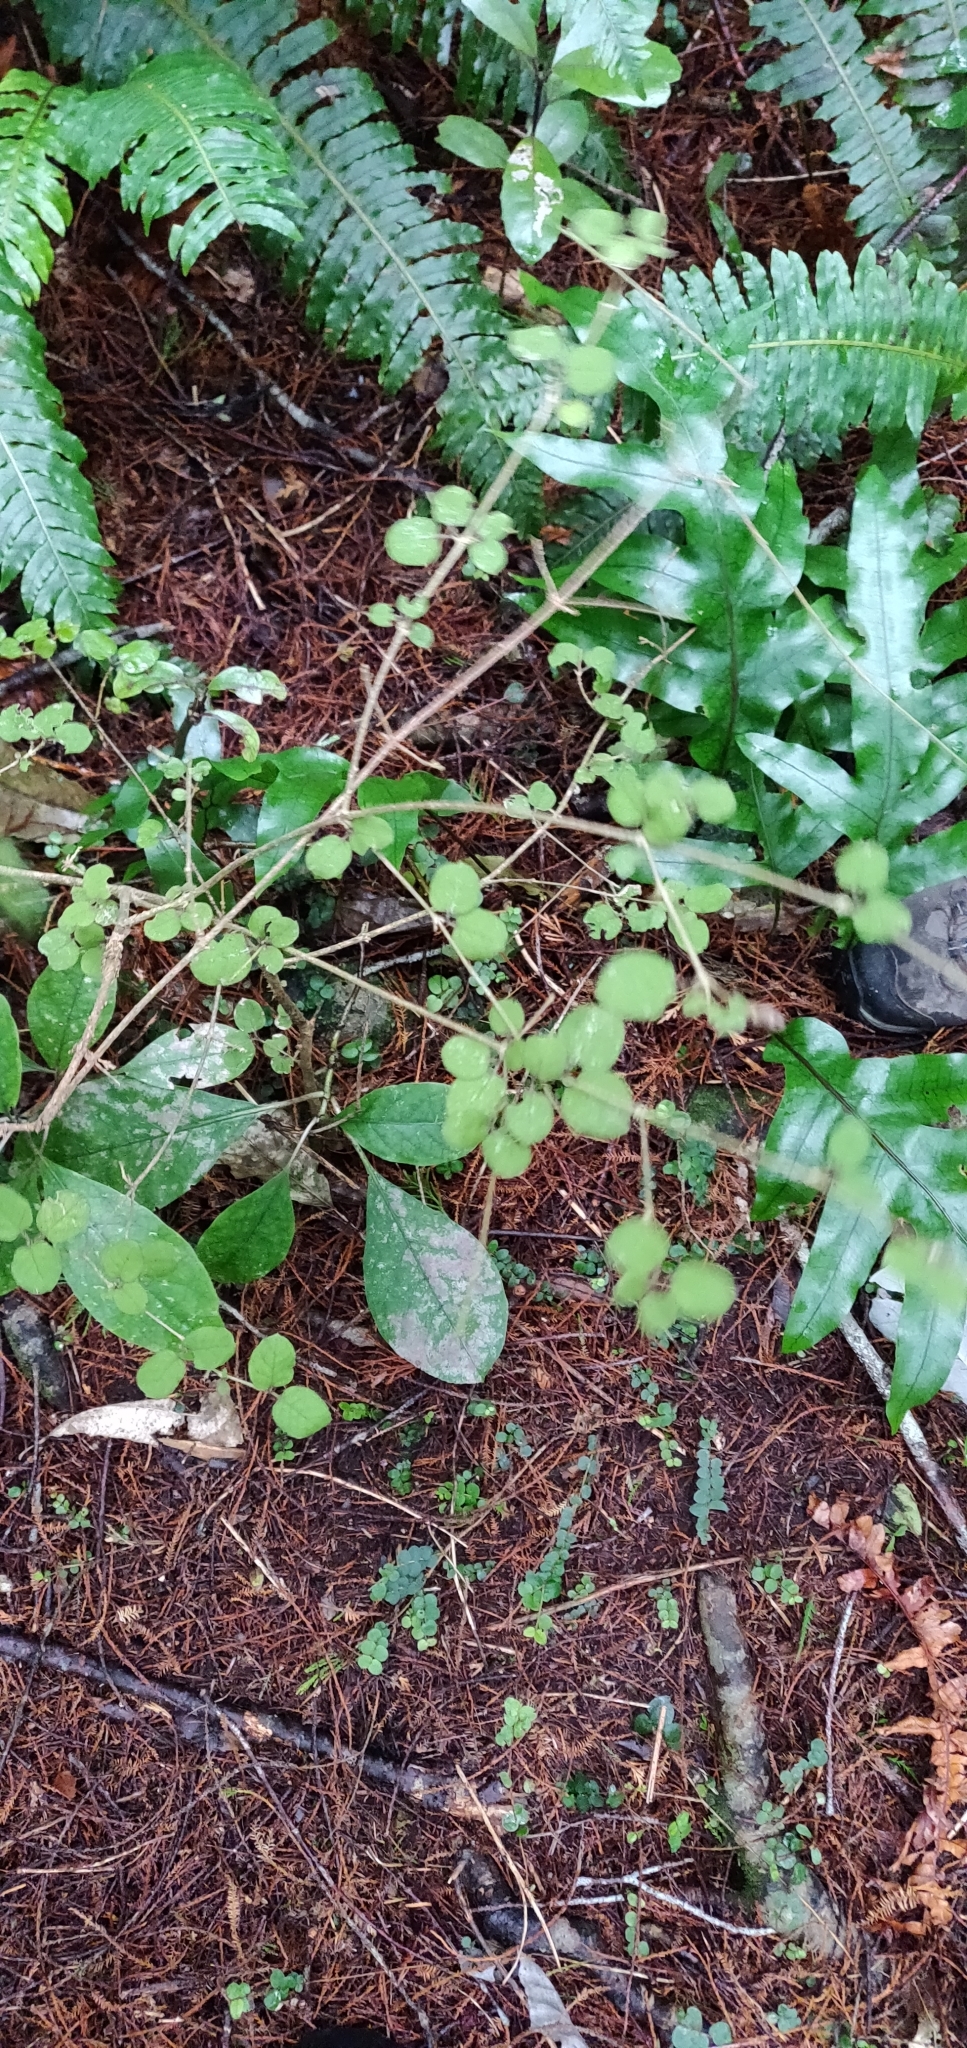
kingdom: Plantae
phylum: Tracheophyta
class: Magnoliopsida
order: Gentianales
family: Rubiaceae
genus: Coprosma
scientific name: Coprosma rotundifolia
